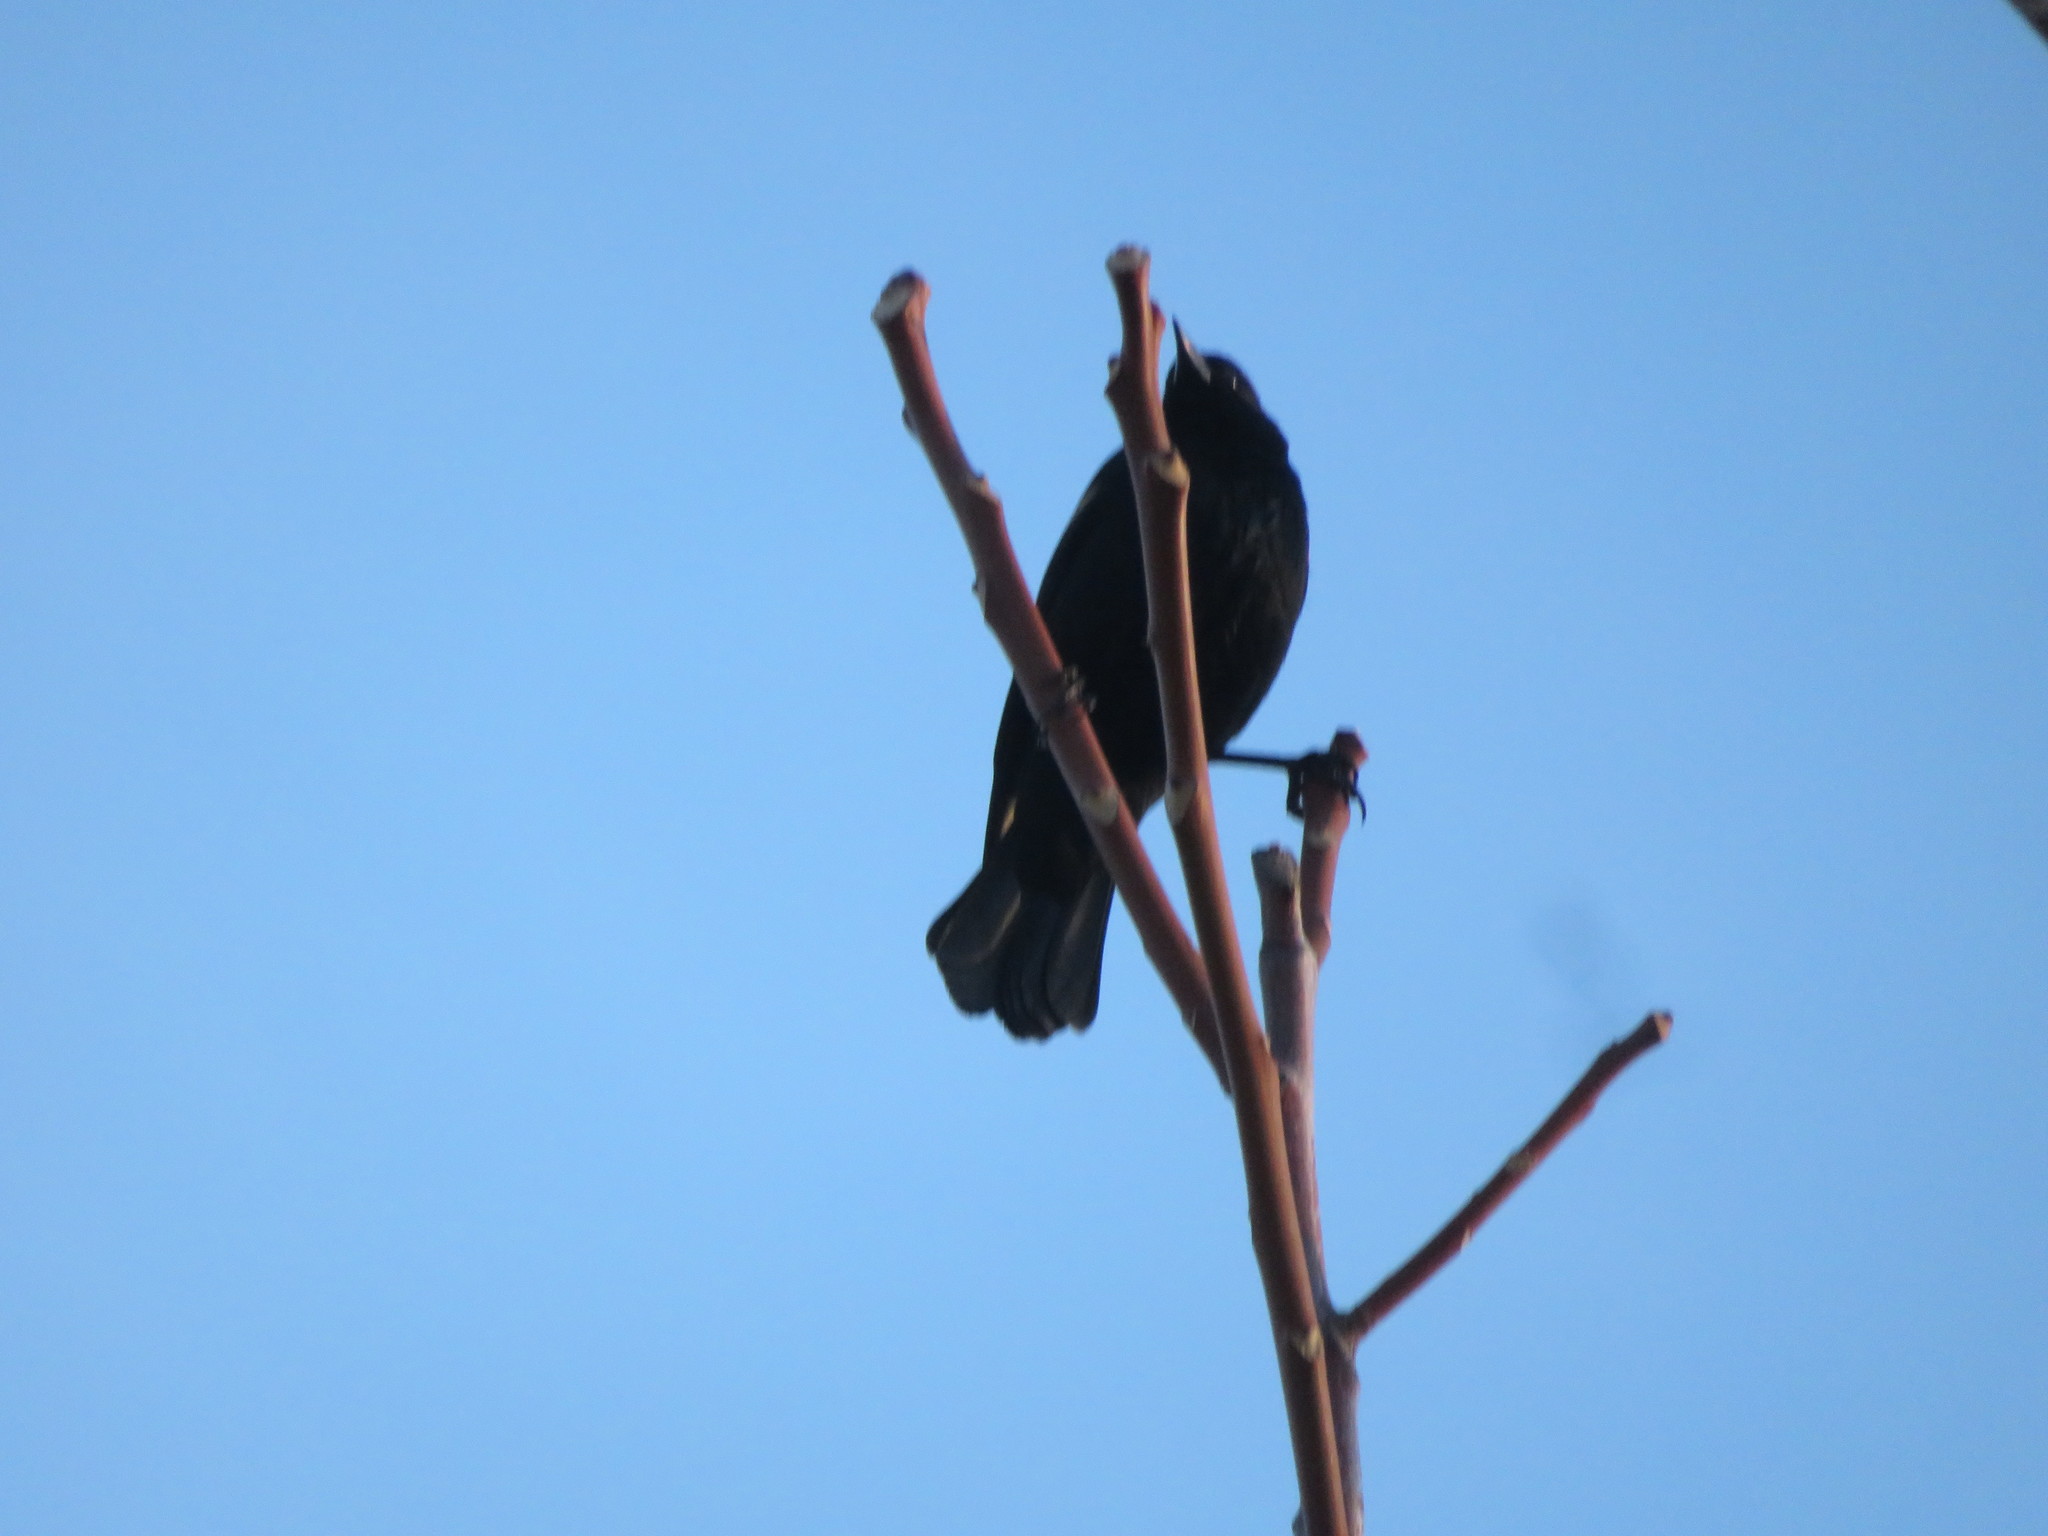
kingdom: Animalia
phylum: Chordata
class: Aves
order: Passeriformes
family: Icteridae
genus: Agelaius
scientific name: Agelaius phoeniceus
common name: Red-winged blackbird
